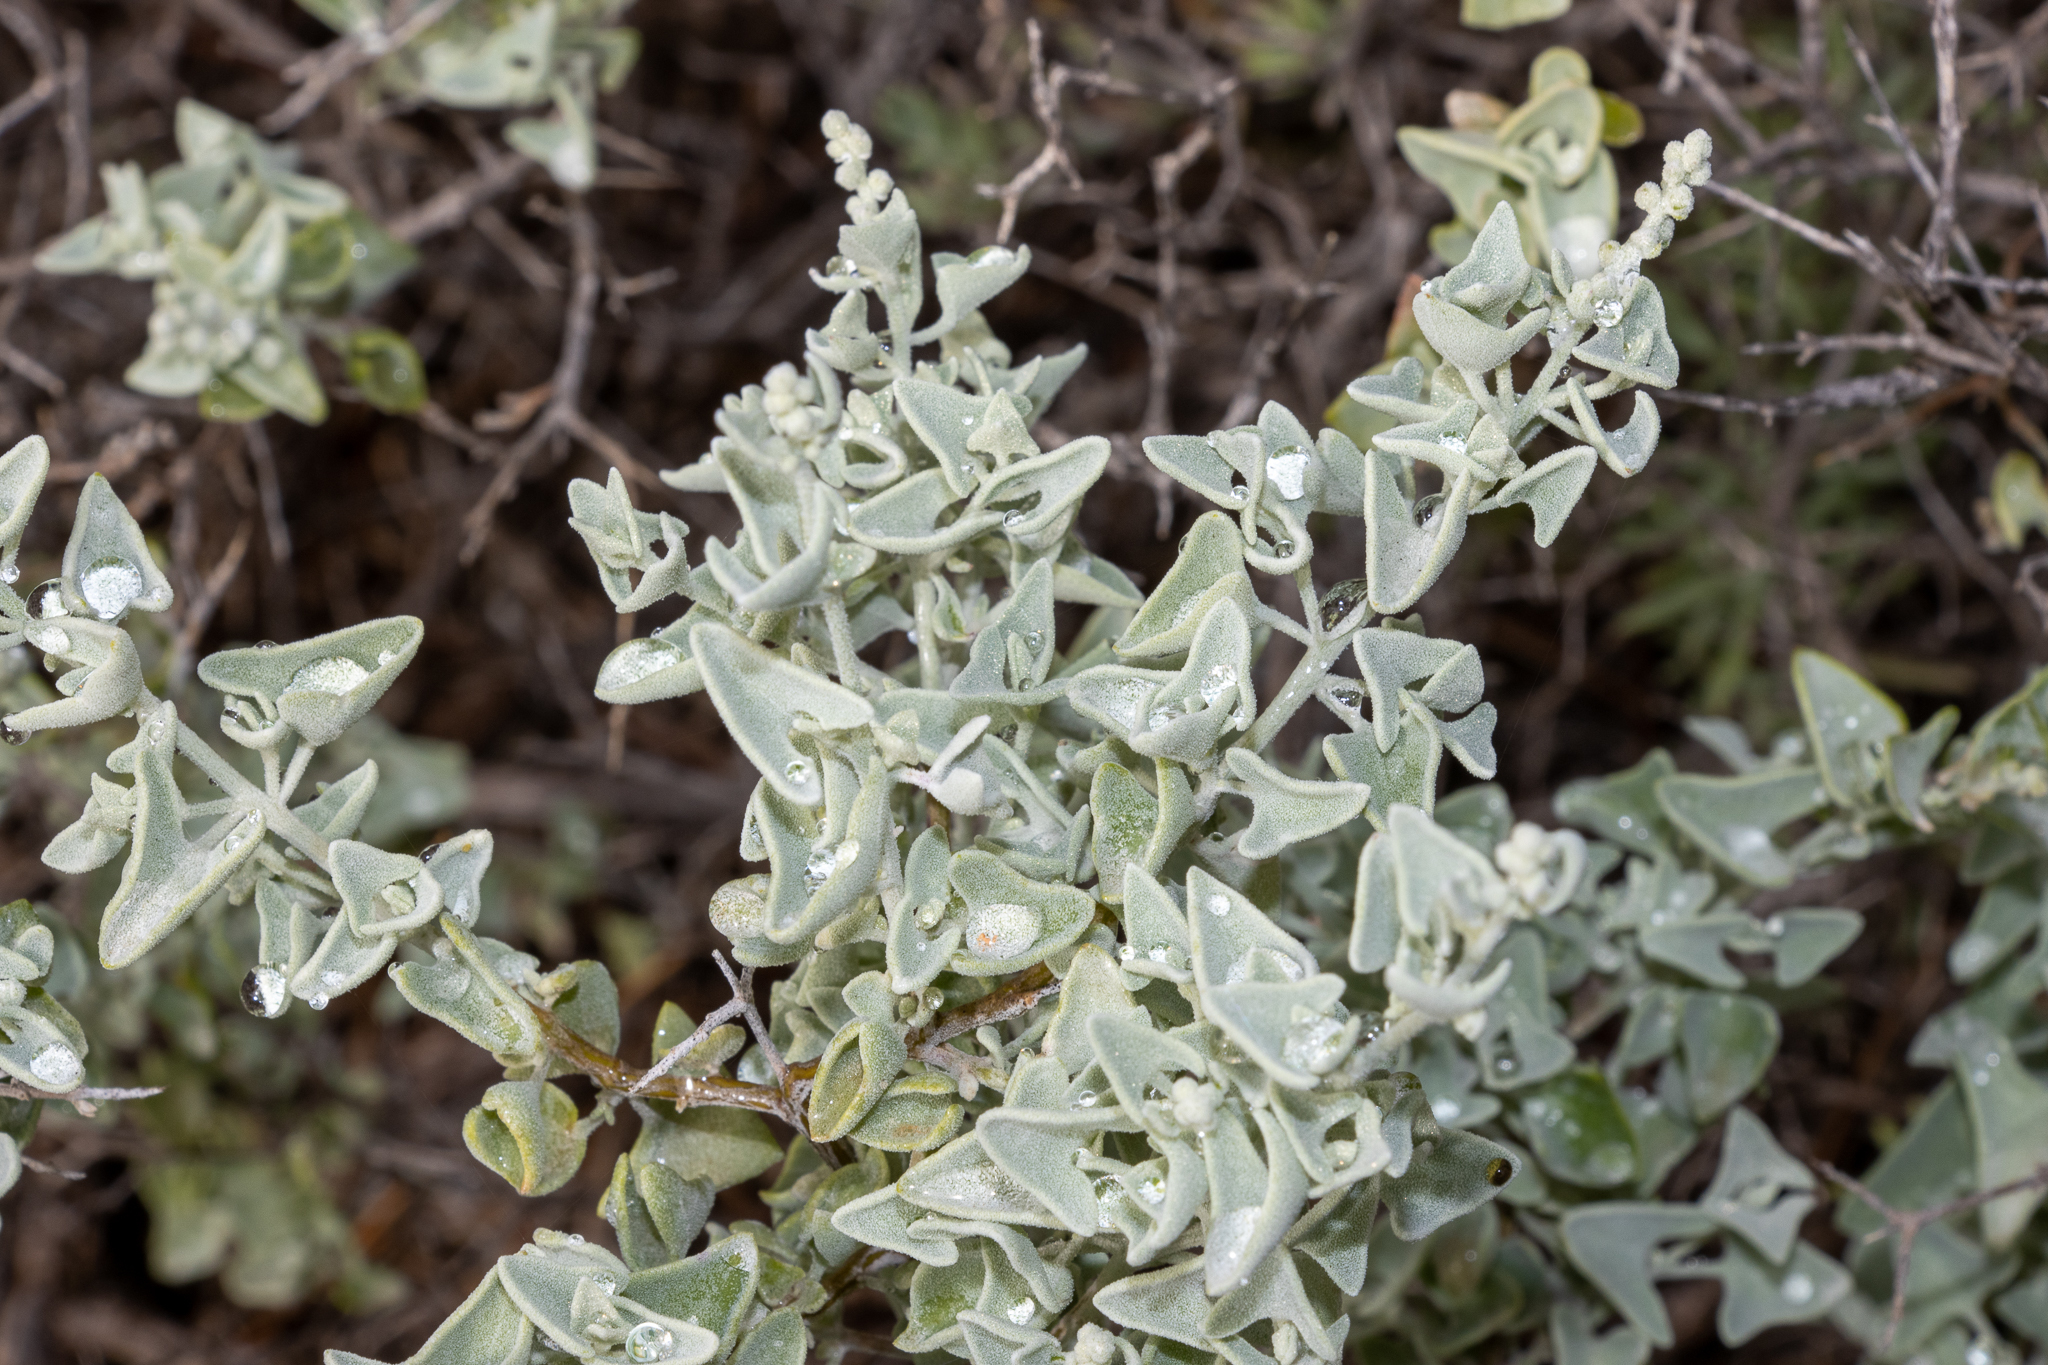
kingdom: Plantae
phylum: Tracheophyta
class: Magnoliopsida
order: Caryophyllales
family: Amaranthaceae
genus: Chenopodium
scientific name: Chenopodium spinescens
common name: Berry-saltbush
